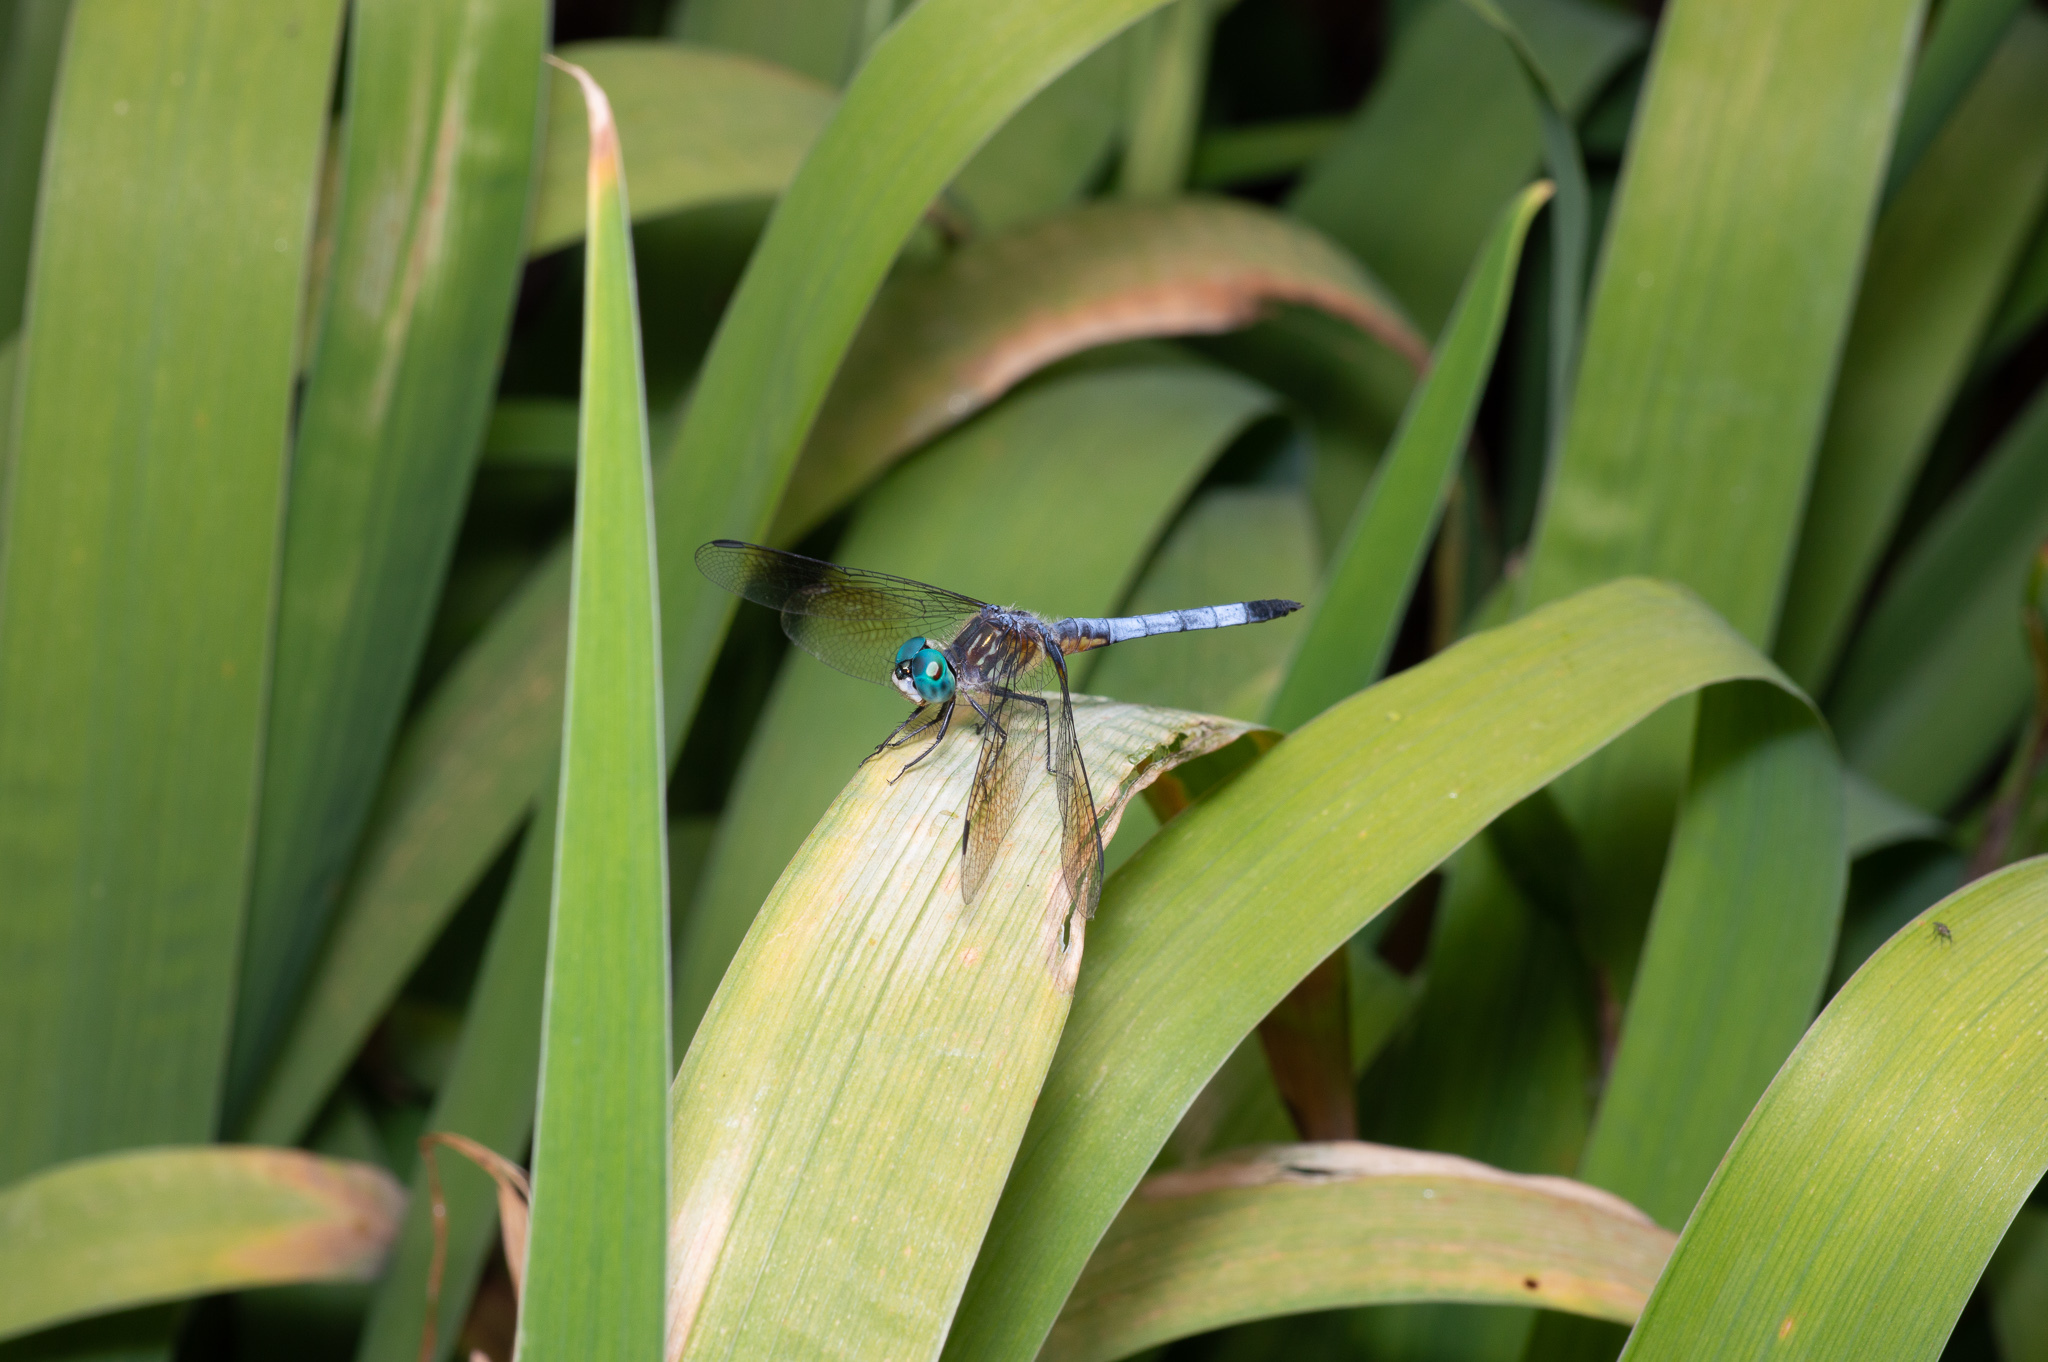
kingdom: Animalia
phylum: Arthropoda
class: Insecta
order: Odonata
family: Libellulidae
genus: Pachydiplax
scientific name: Pachydiplax longipennis
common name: Blue dasher
